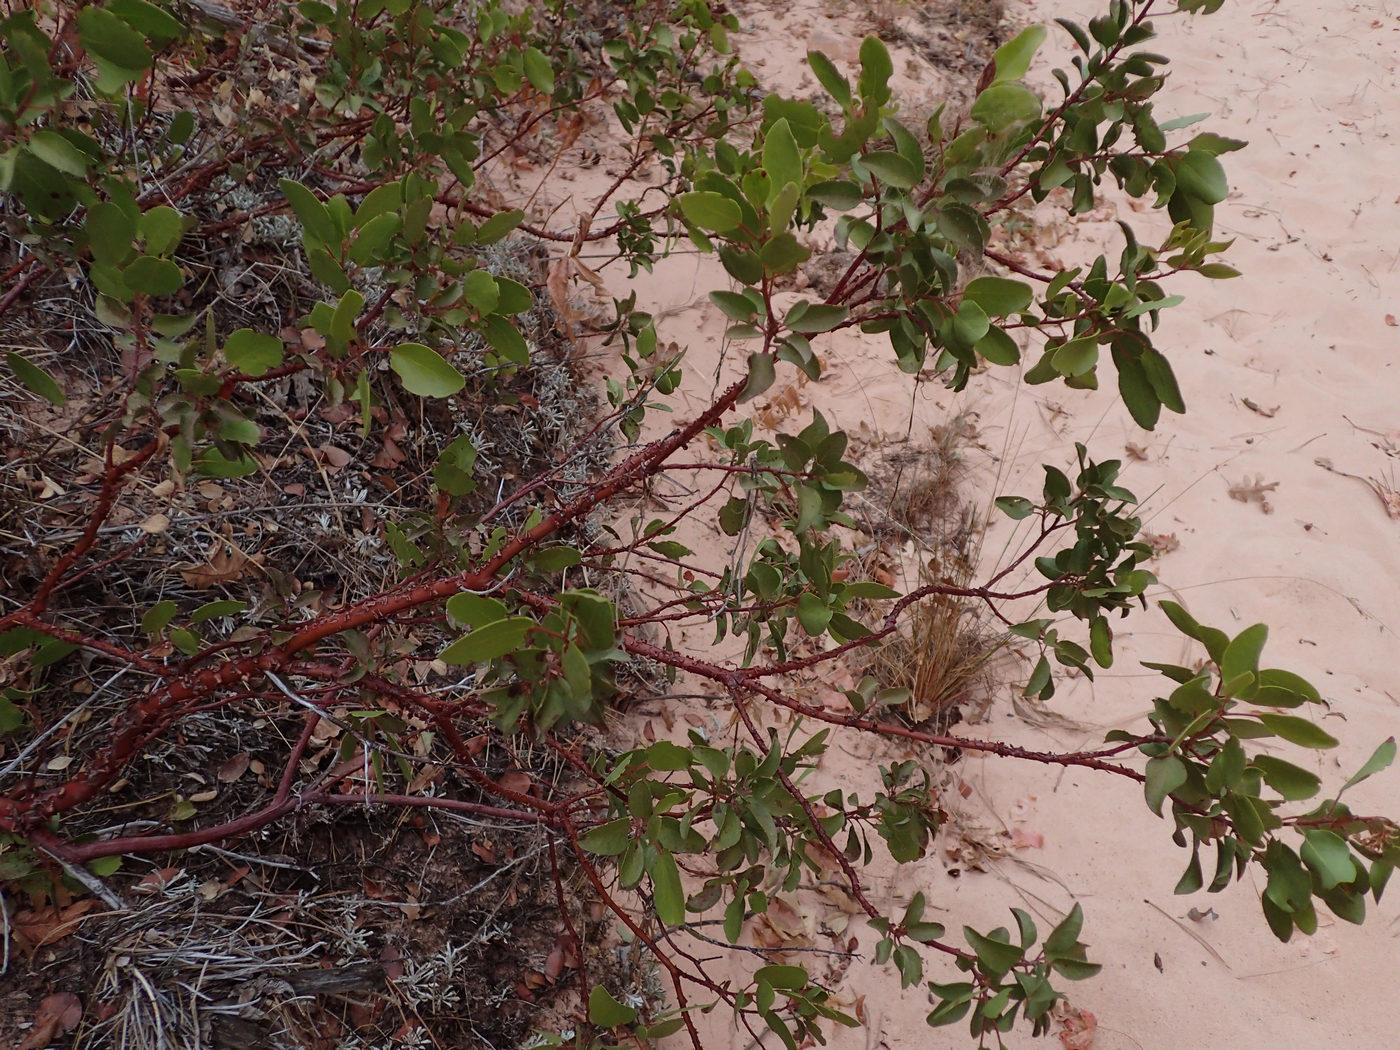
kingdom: Plantae
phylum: Tracheophyta
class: Magnoliopsida
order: Ericales
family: Ericaceae
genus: Arctostaphylos
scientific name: Arctostaphylos patula
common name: Green-leaf manzanita
